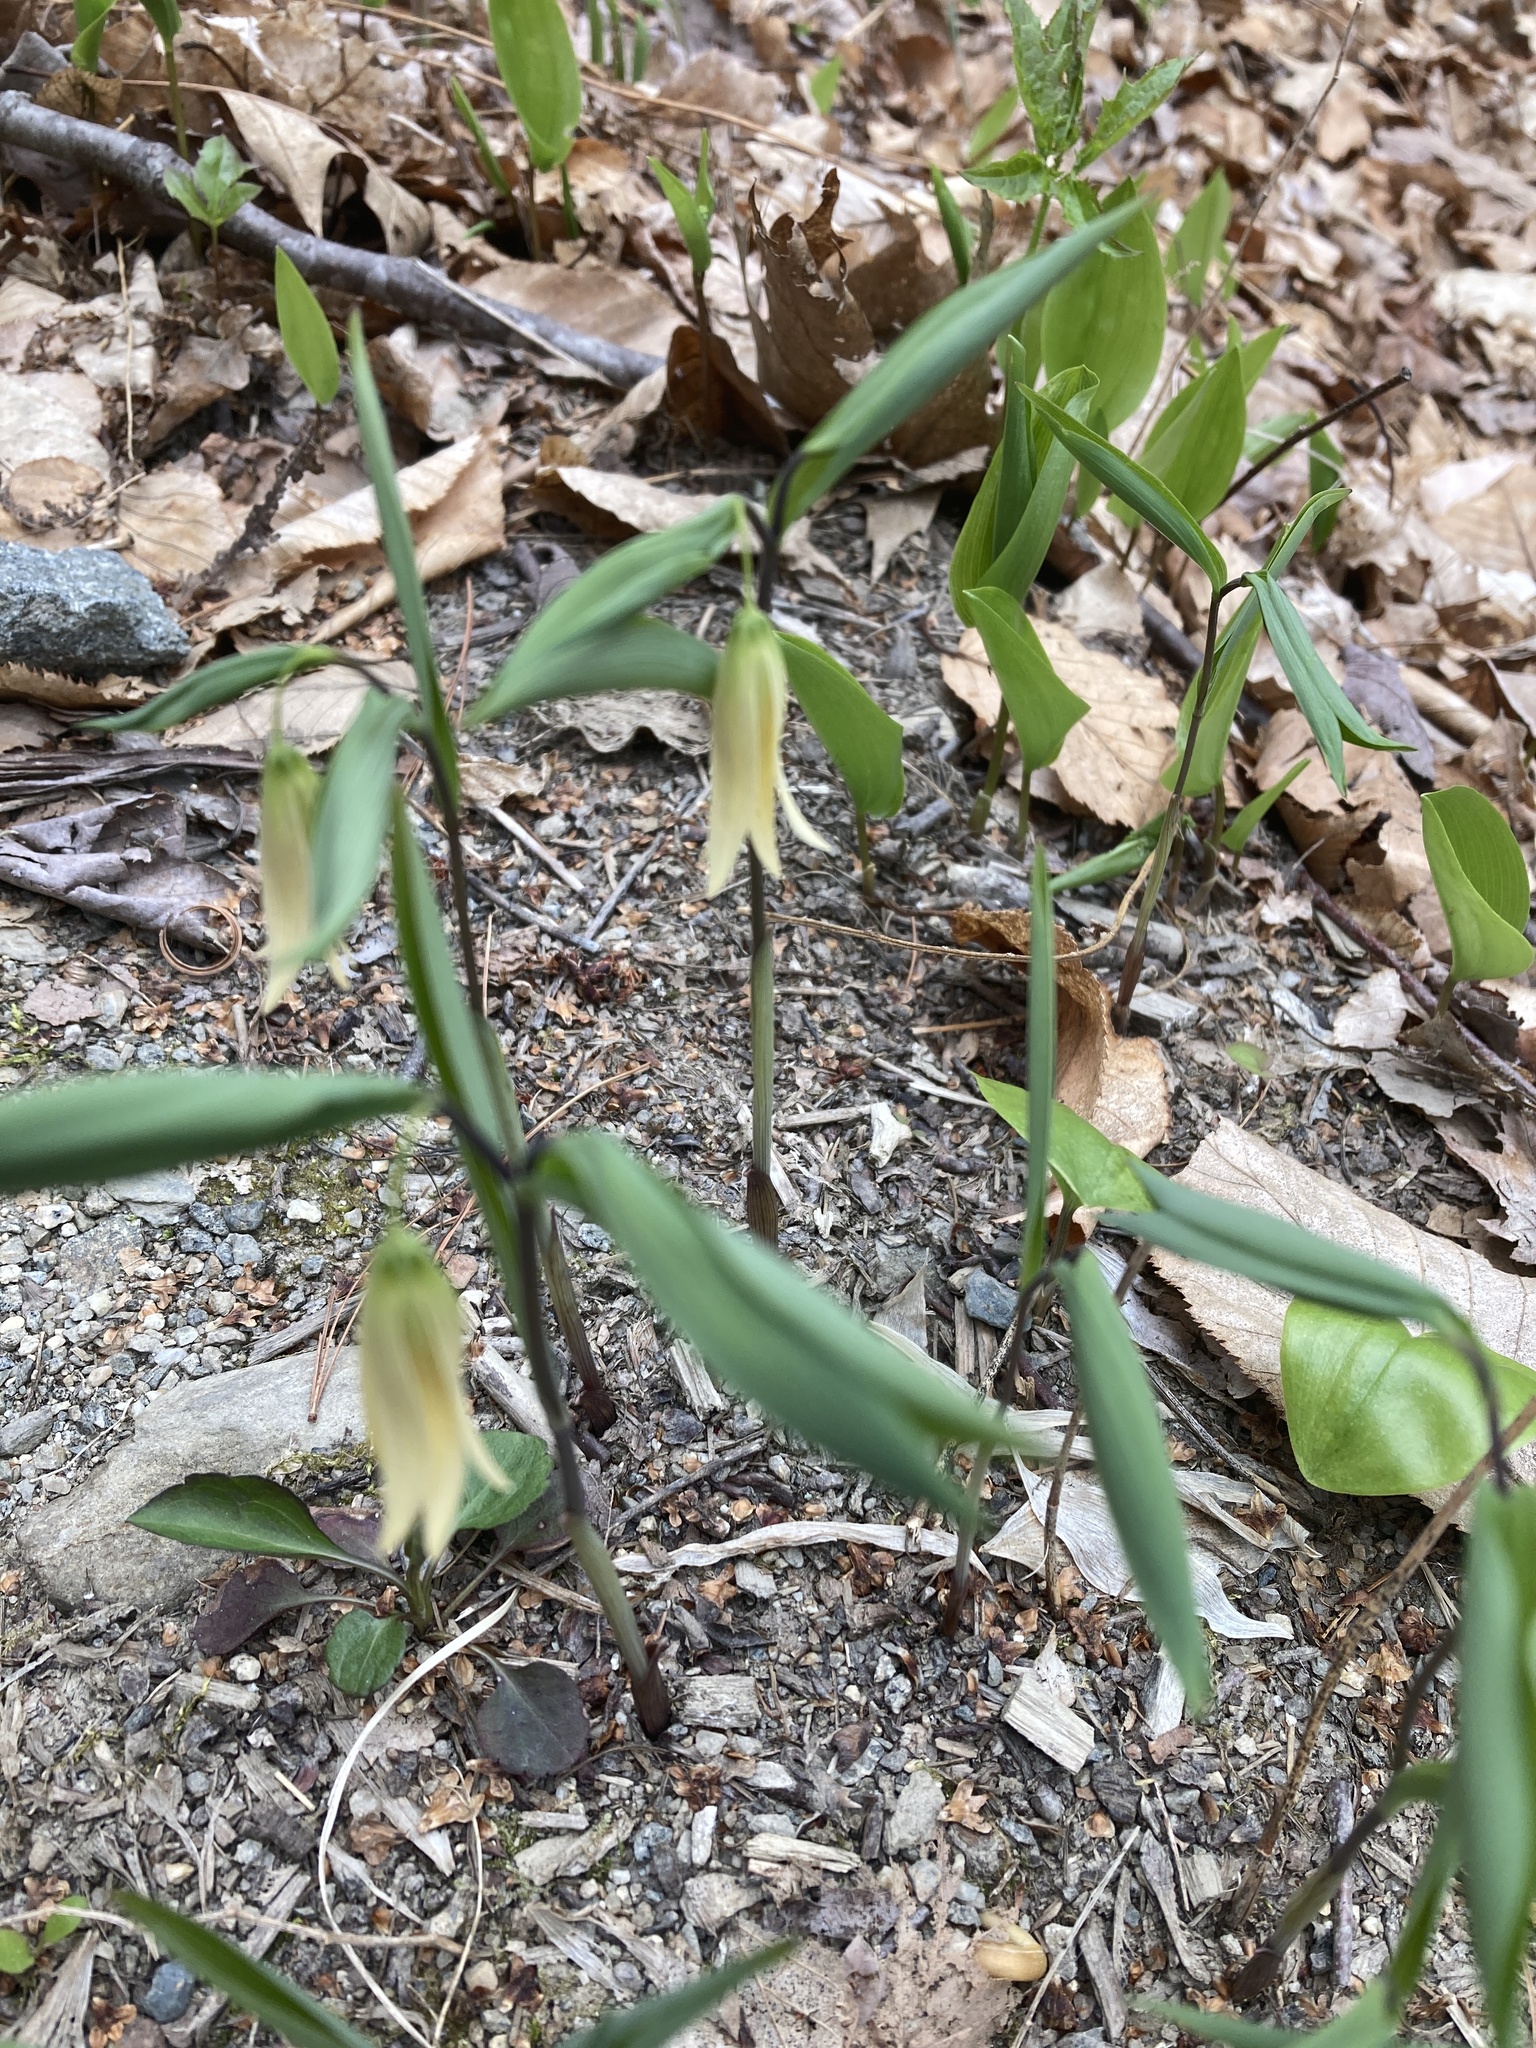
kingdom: Plantae
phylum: Tracheophyta
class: Liliopsida
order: Liliales
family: Colchicaceae
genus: Uvularia
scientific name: Uvularia sessilifolia
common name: Straw-lily
